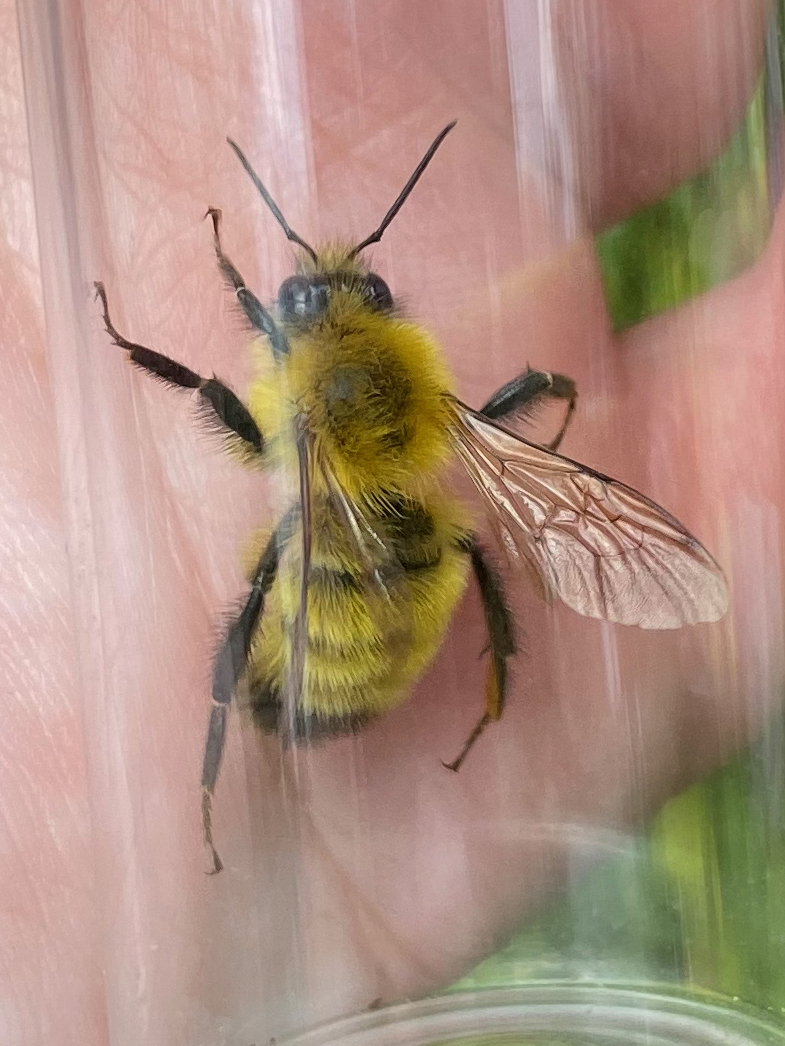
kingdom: Animalia
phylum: Arthropoda
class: Insecta
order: Hymenoptera
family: Apidae
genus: Bombus
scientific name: Bombus perplexus
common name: Confusing bumble bee
